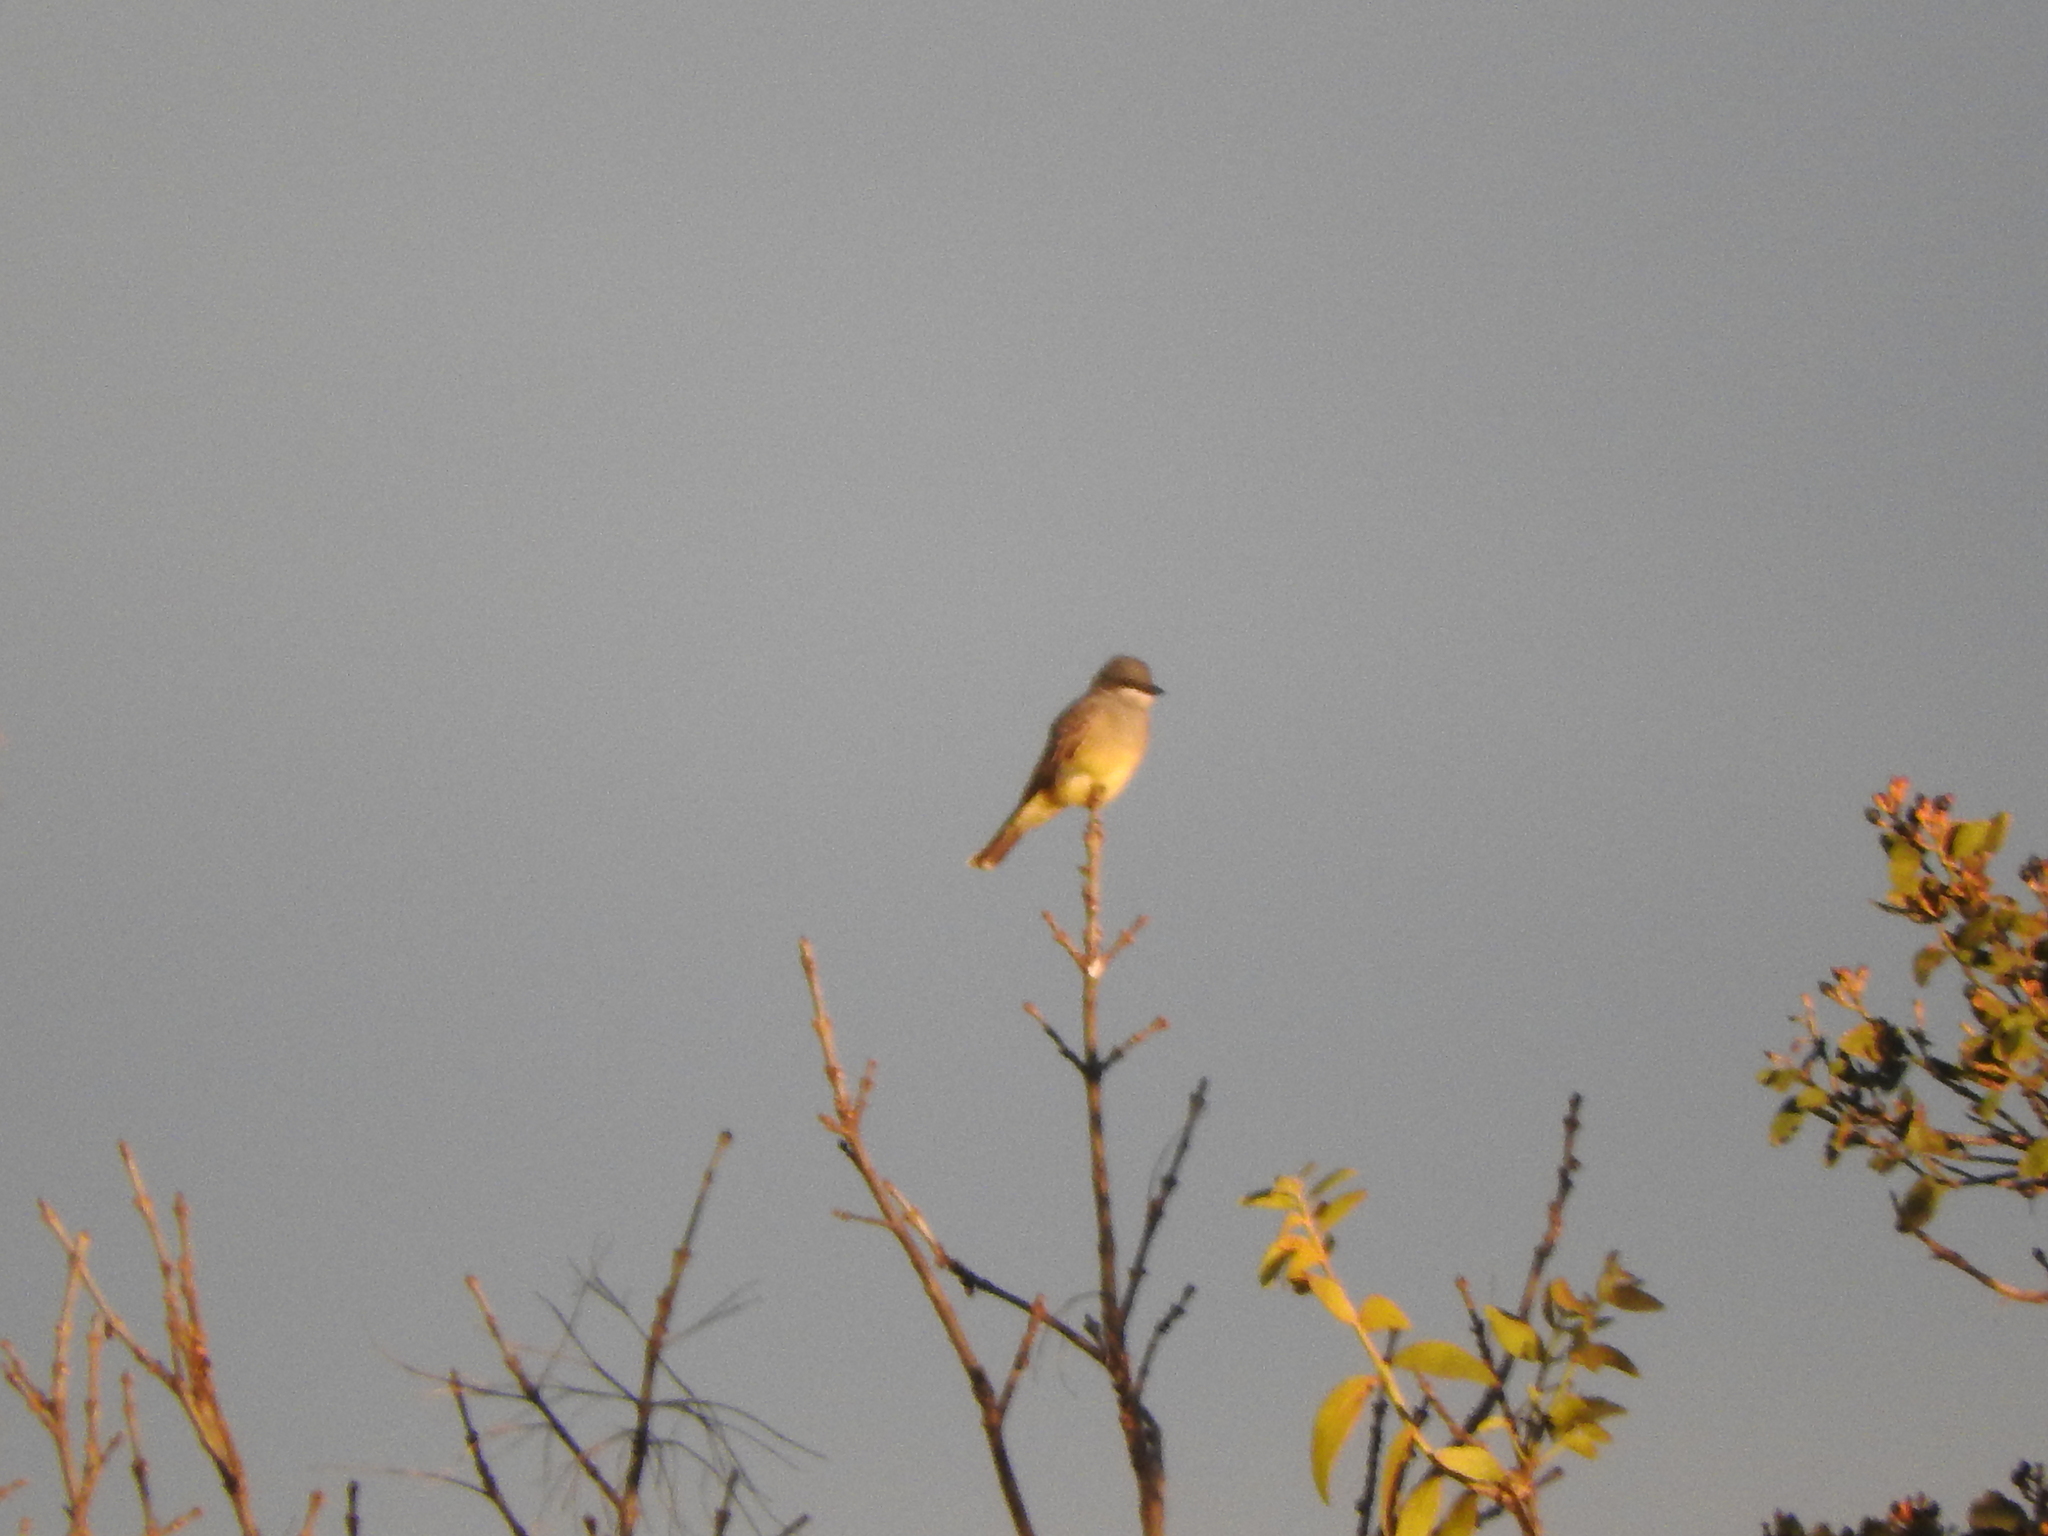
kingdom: Animalia
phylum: Chordata
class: Aves
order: Passeriformes
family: Tyrannidae
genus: Tyrannus
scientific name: Tyrannus vociferans
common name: Cassin's kingbird
